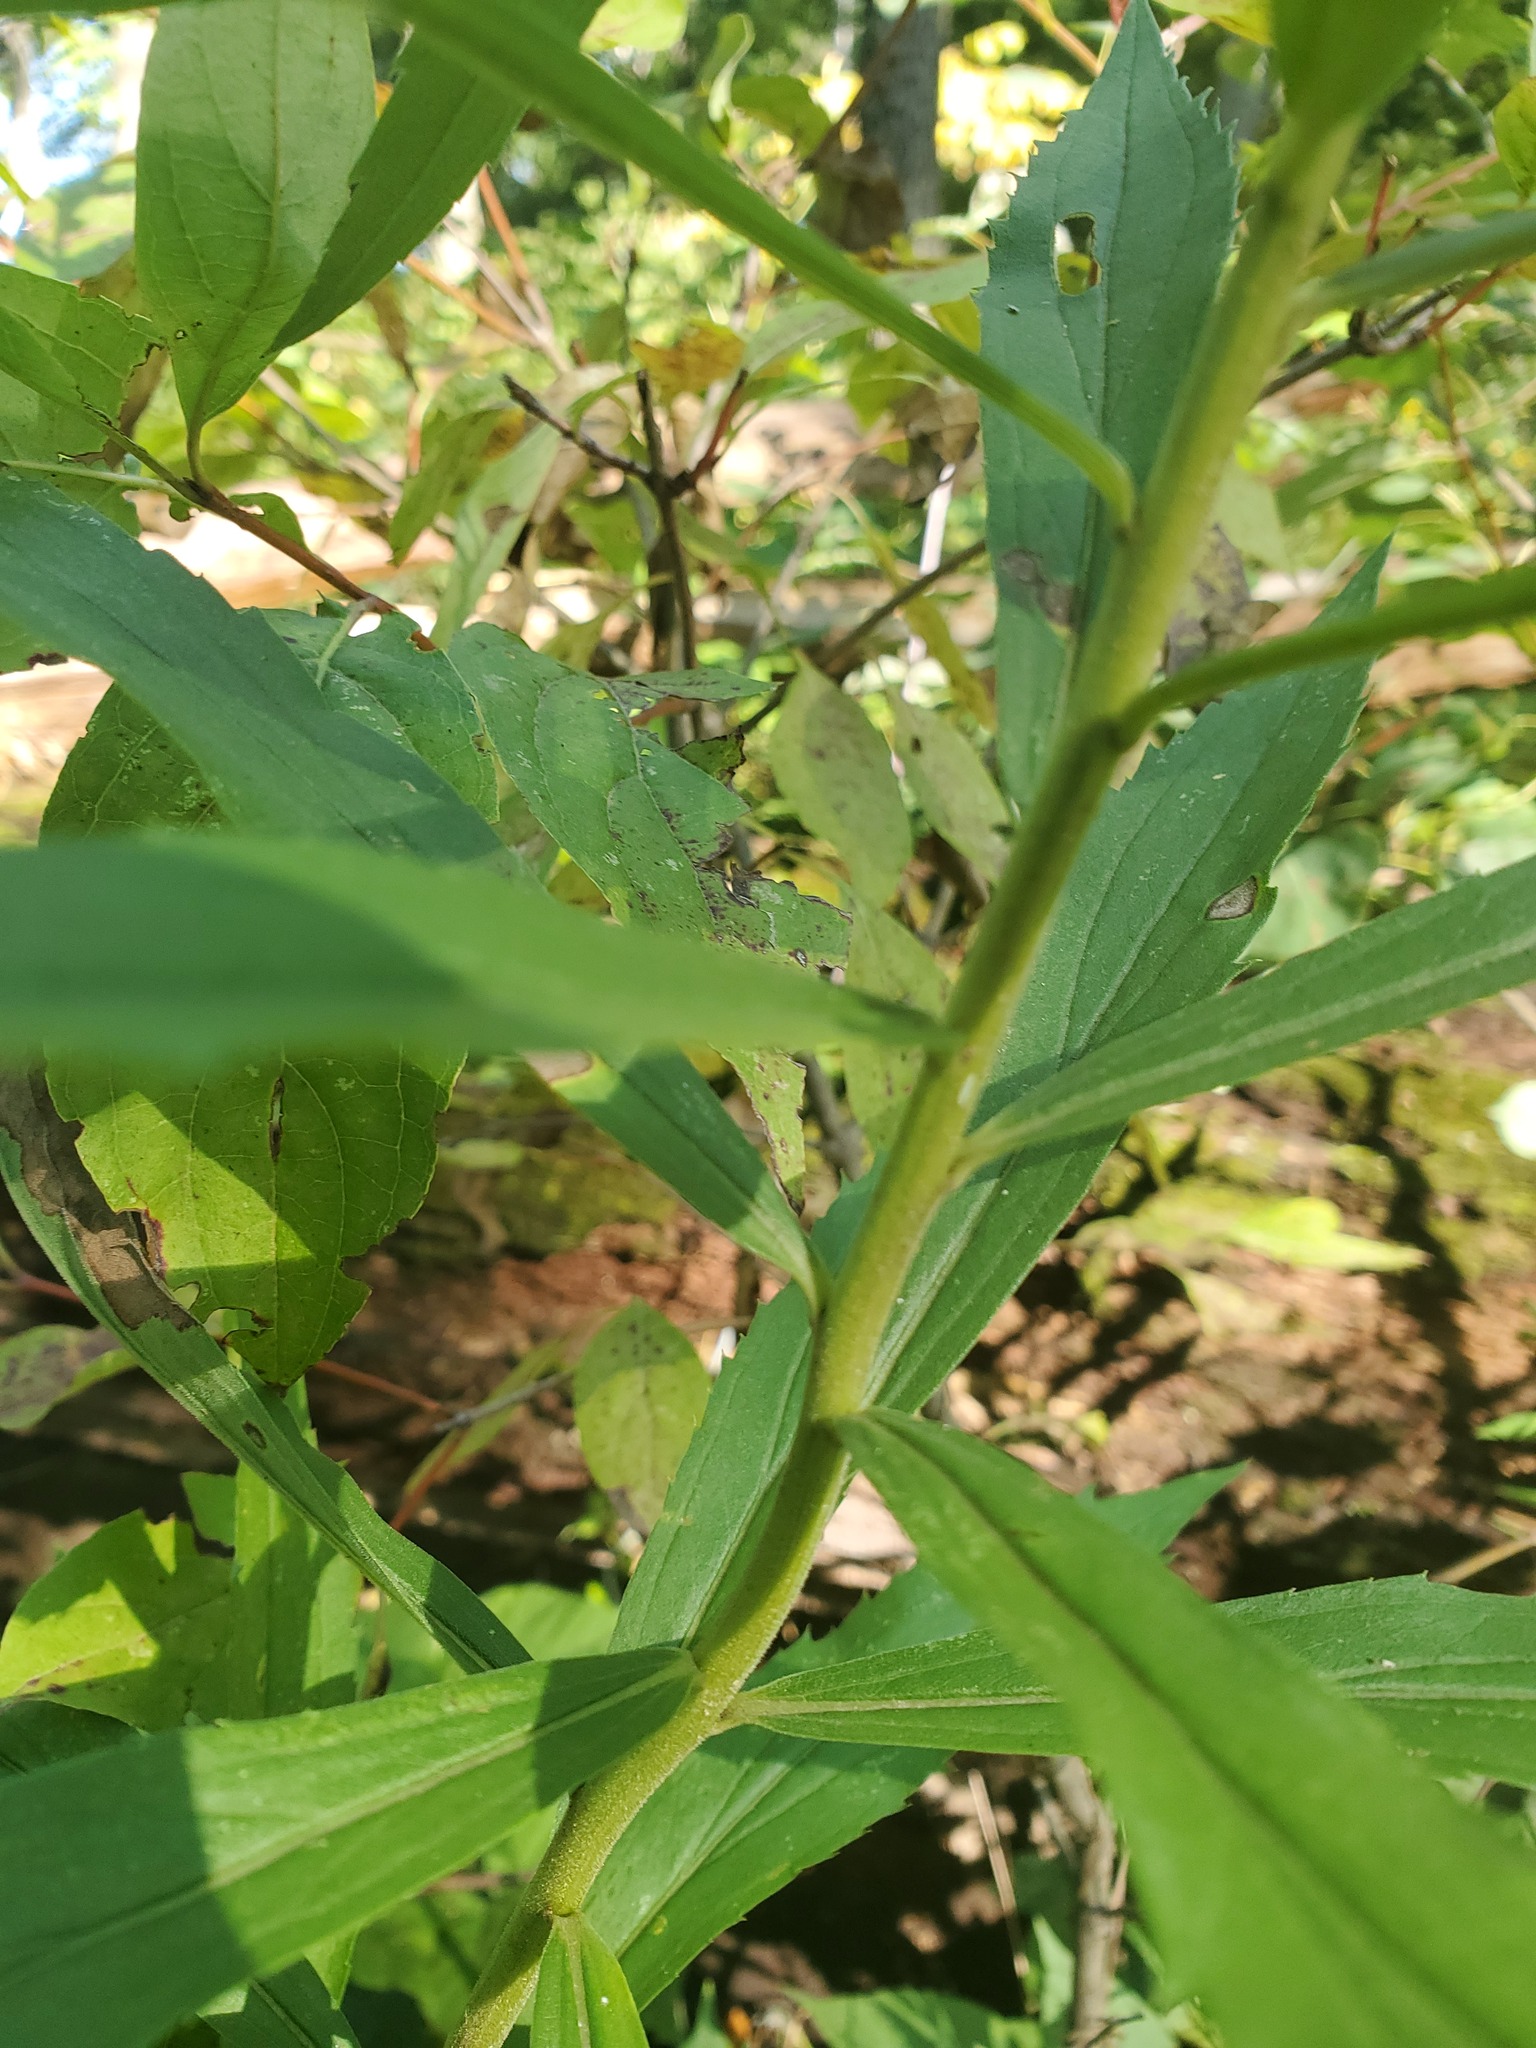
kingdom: Plantae
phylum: Tracheophyta
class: Magnoliopsida
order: Asterales
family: Asteraceae
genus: Solidago
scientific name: Solidago altissima
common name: Late goldenrod
